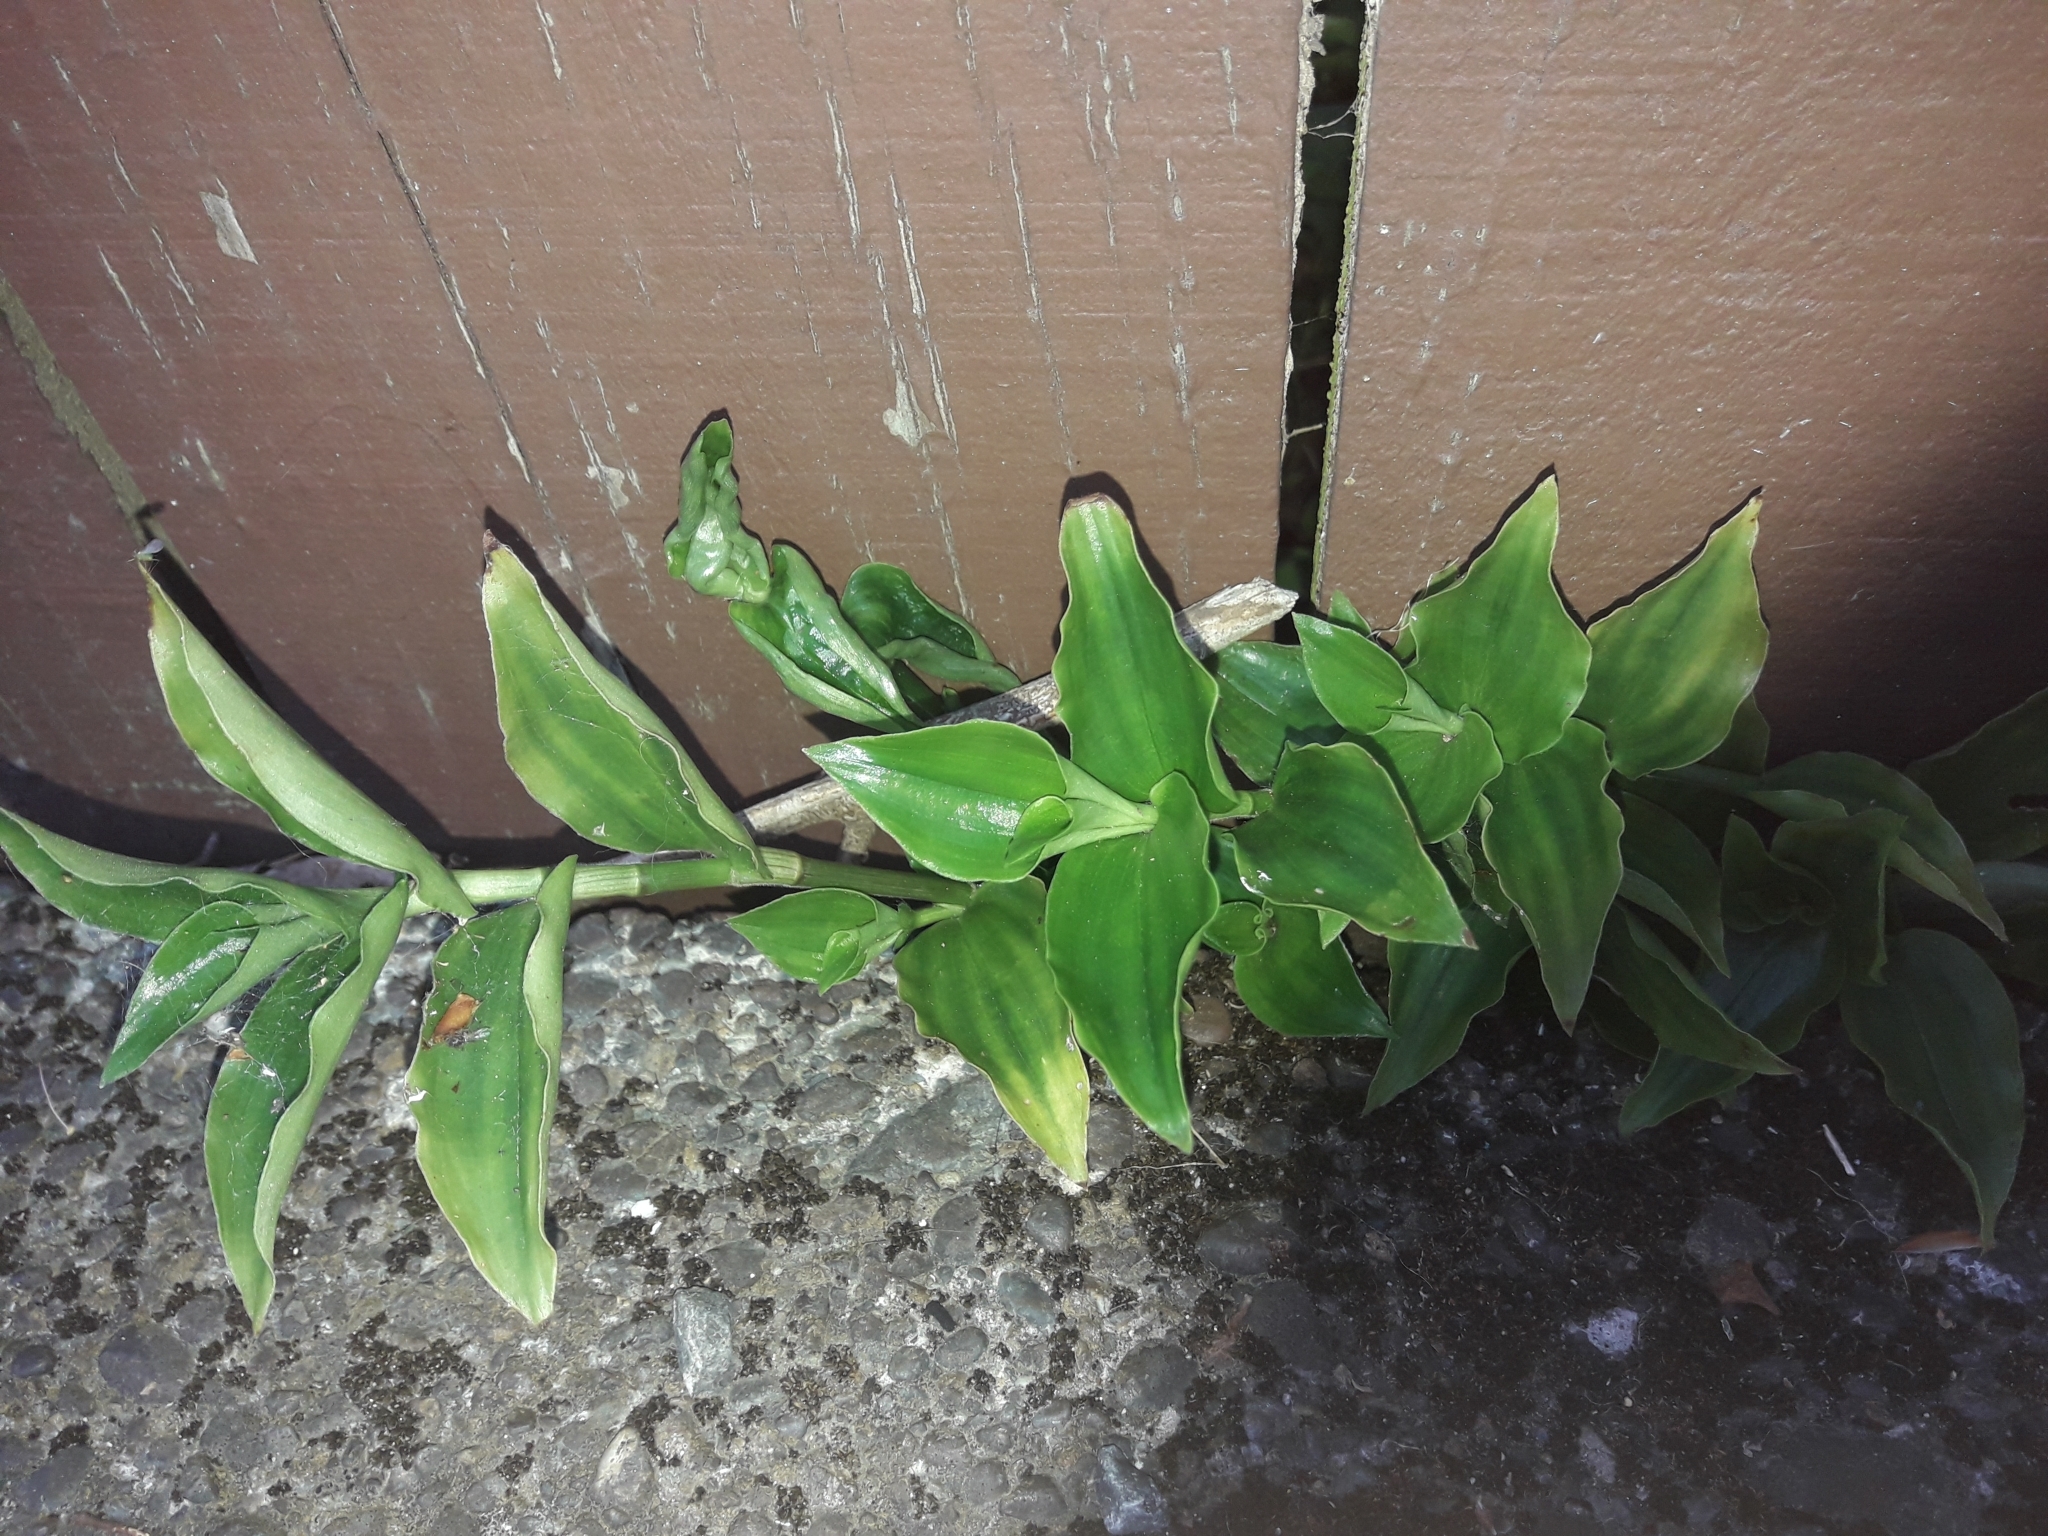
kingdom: Plantae
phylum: Tracheophyta
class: Liliopsida
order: Commelinales
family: Commelinaceae
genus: Tradescantia
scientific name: Tradescantia fluminensis
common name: Wandering-jew
